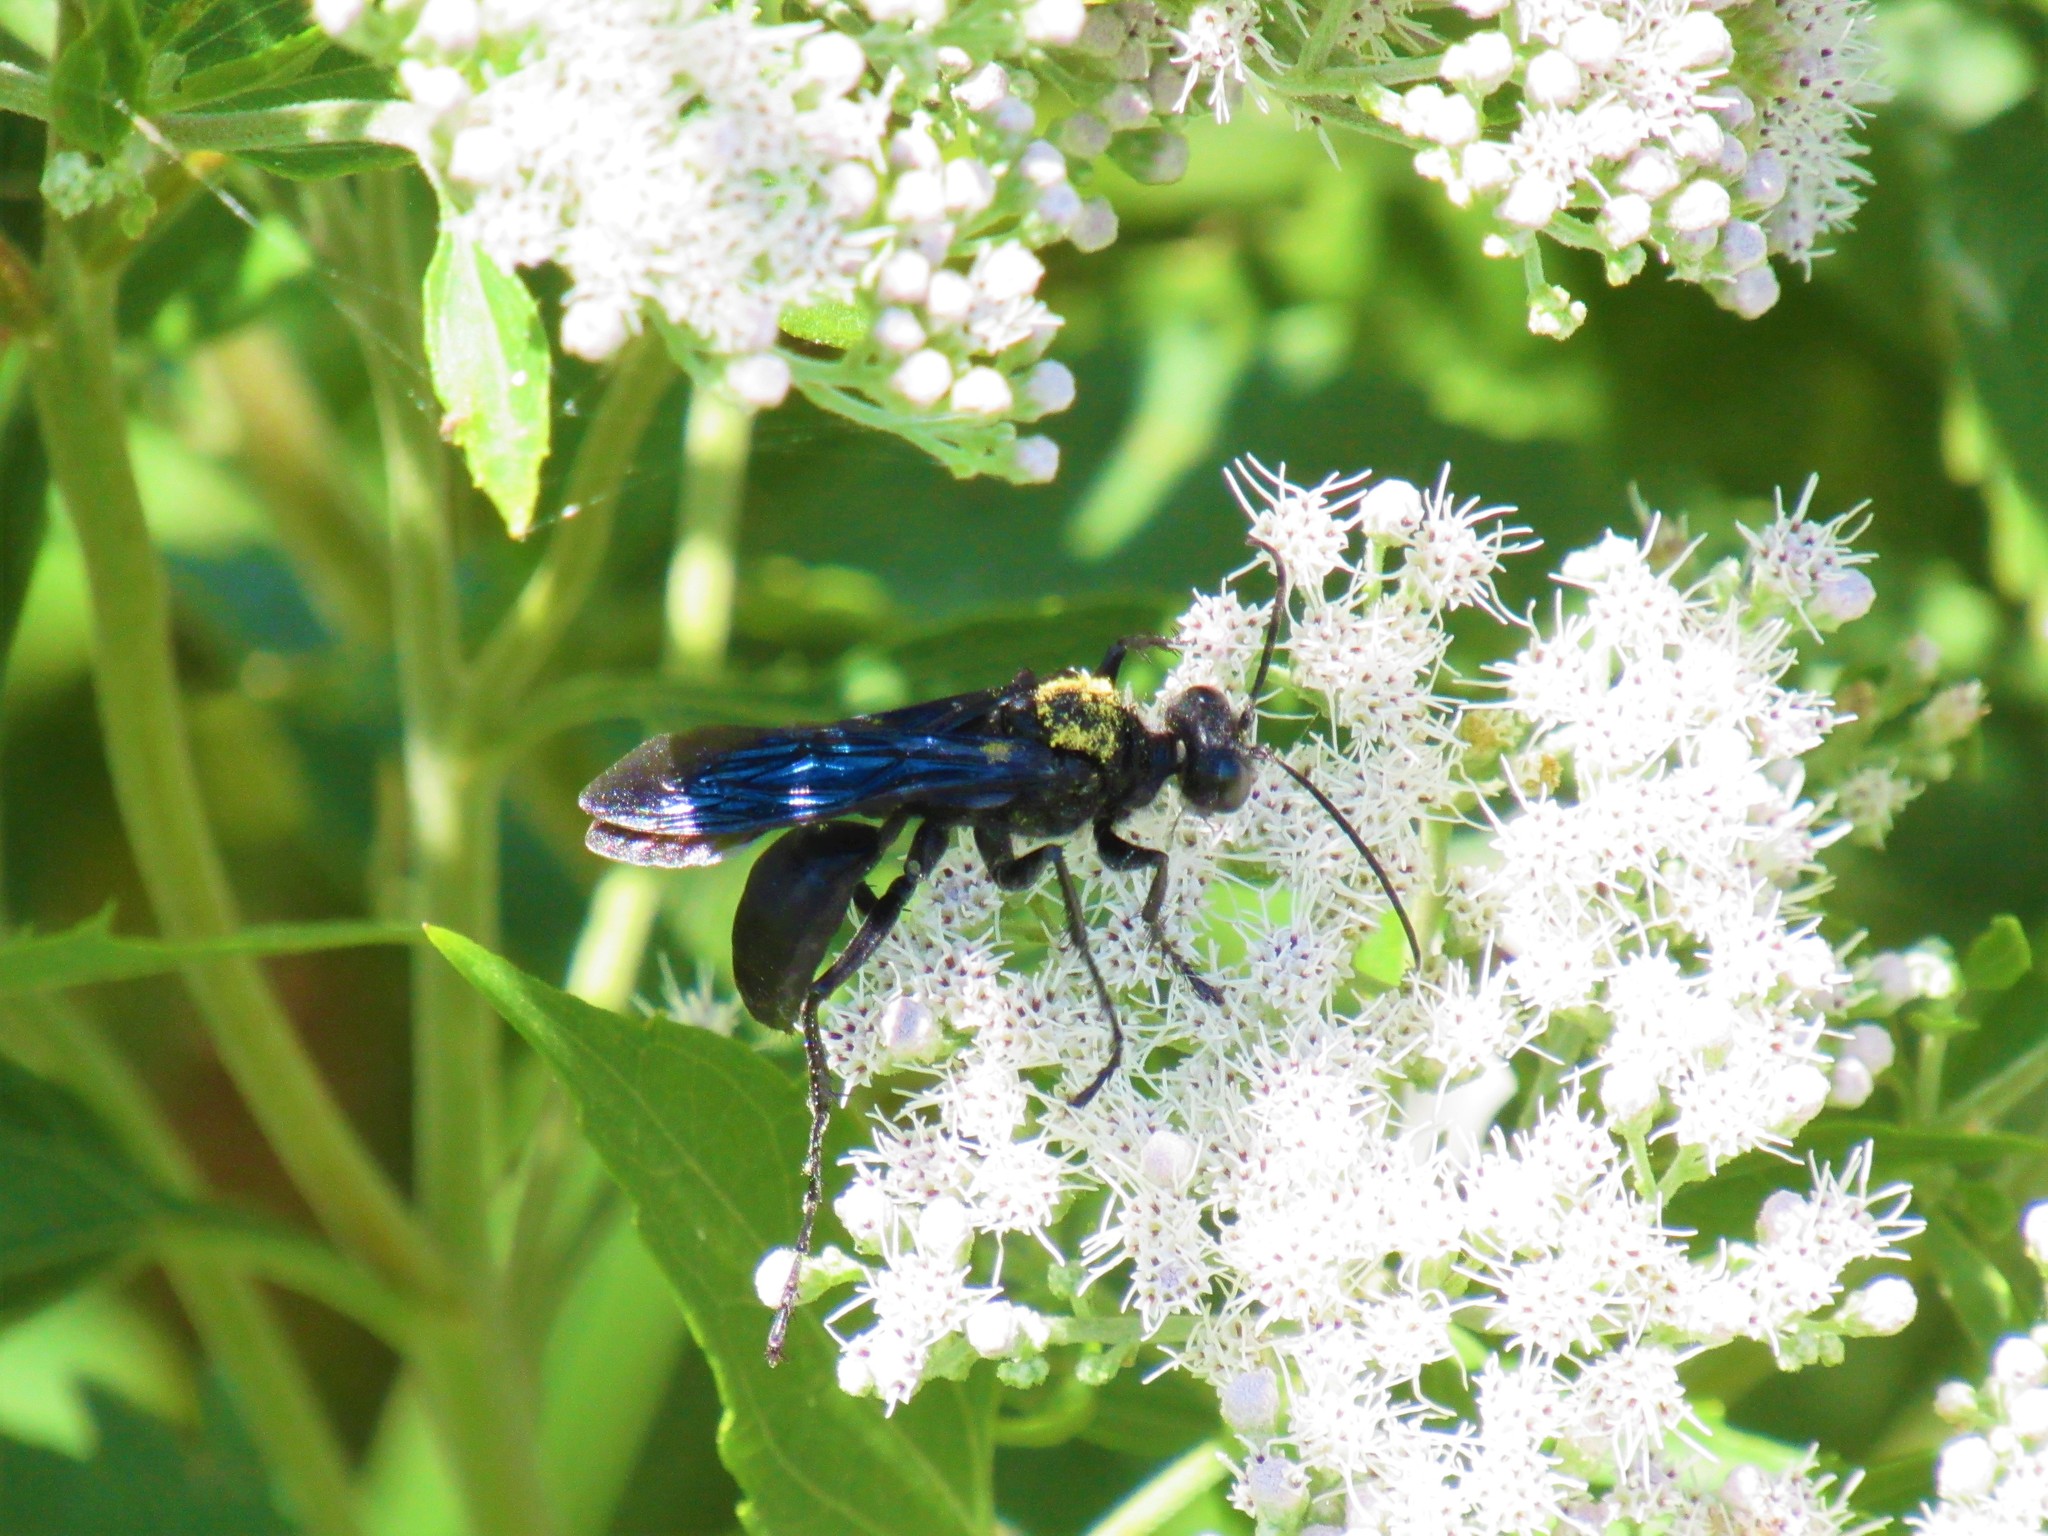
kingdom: Animalia
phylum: Arthropoda
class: Insecta
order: Hymenoptera
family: Sphecidae
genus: Sphex
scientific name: Sphex pensylvanicus
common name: Great black digger wasp
